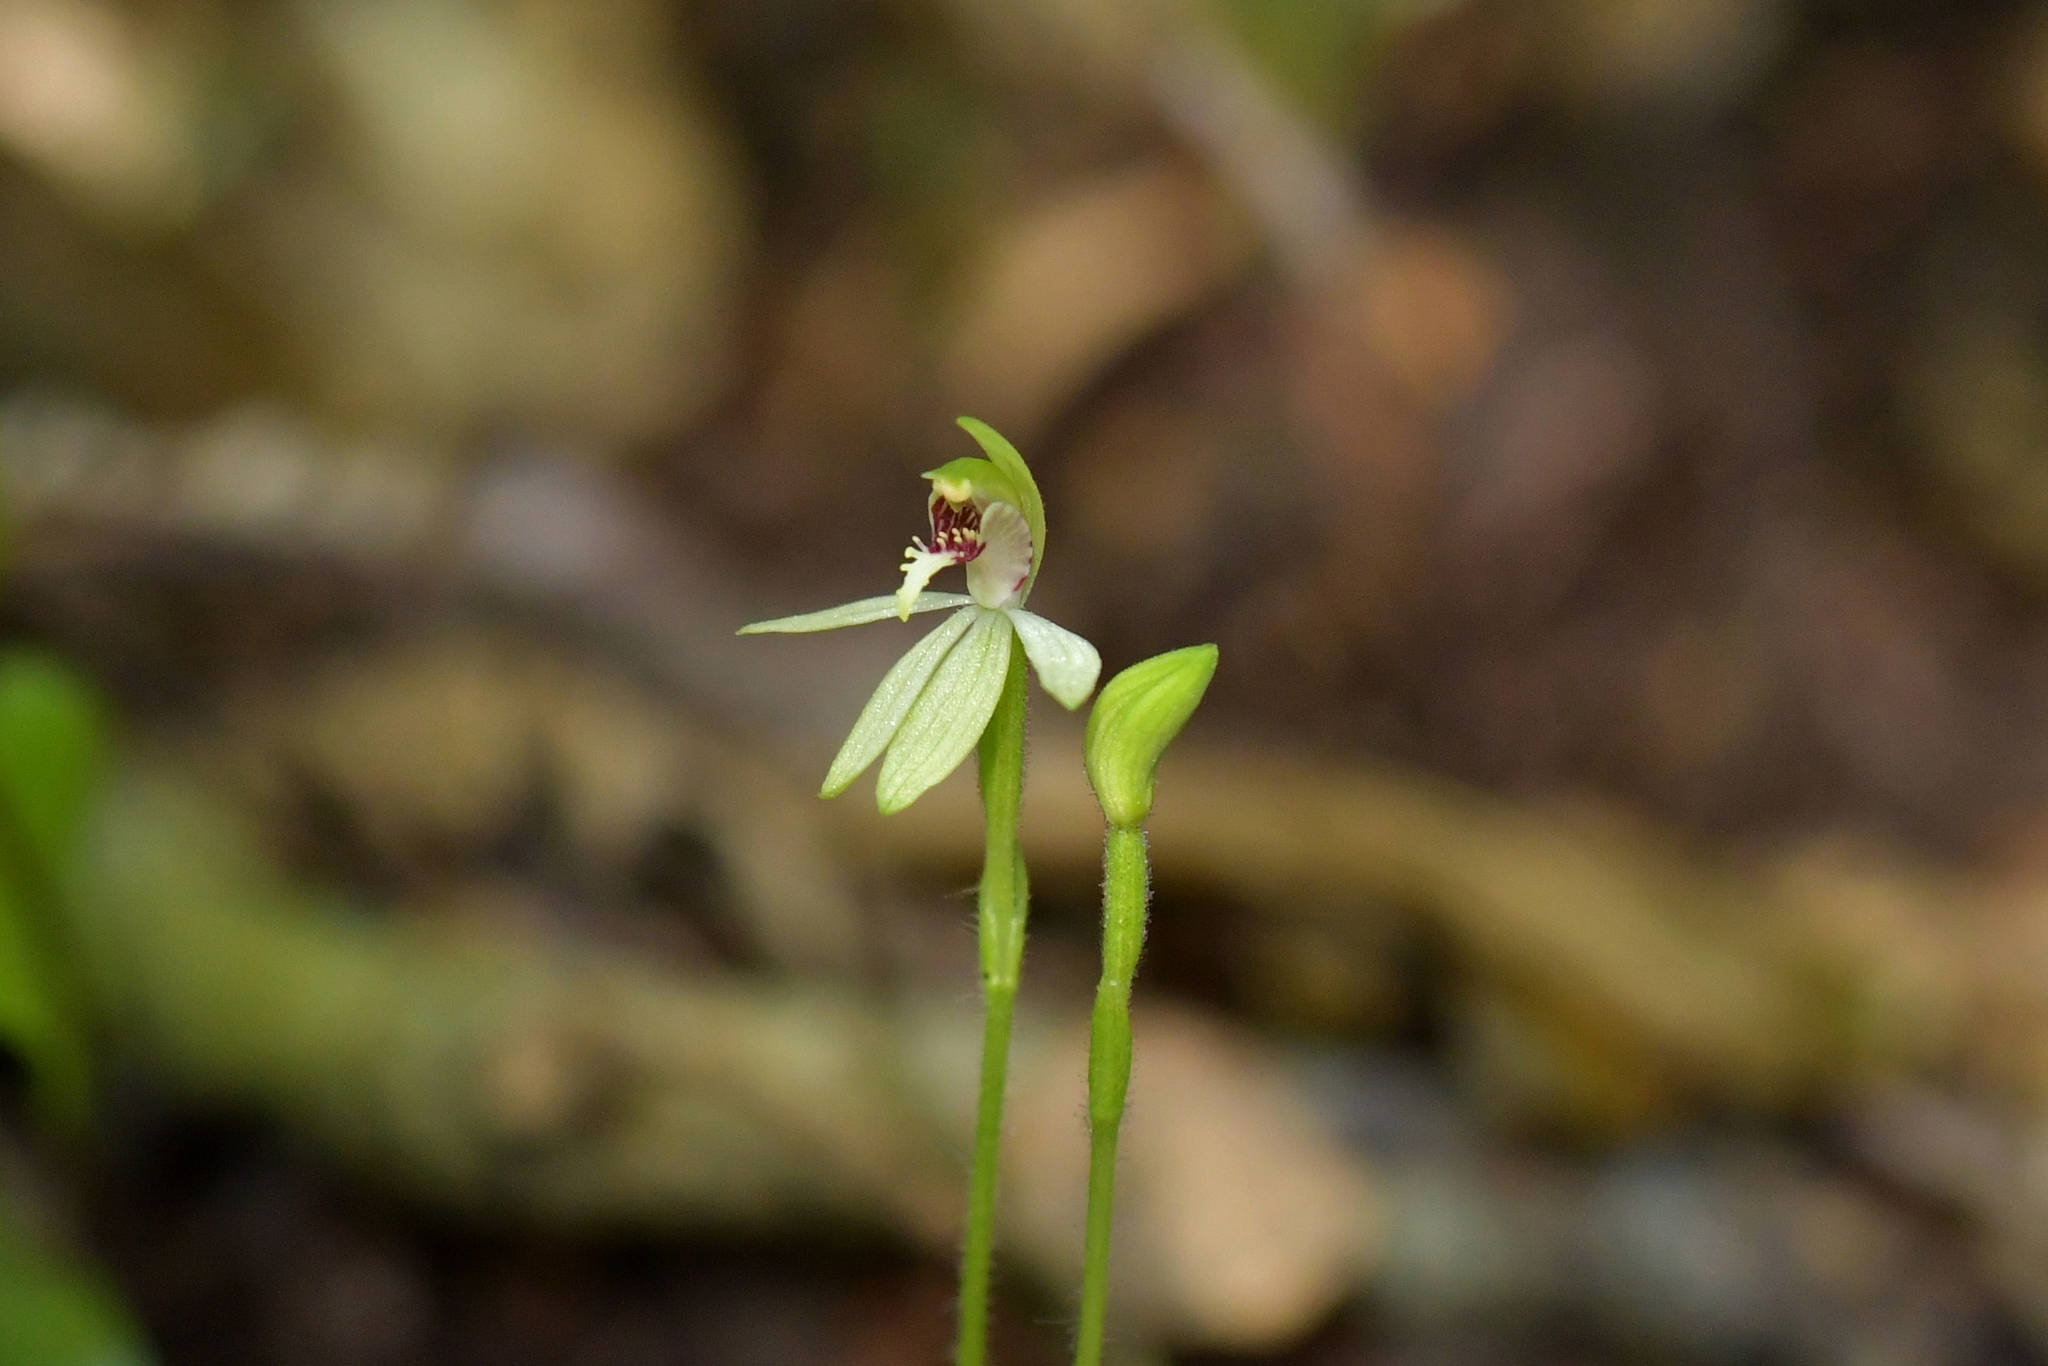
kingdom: Plantae
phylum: Tracheophyta
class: Liliopsida
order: Asparagales
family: Orchidaceae
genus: Caladenia
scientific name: Caladenia chlorostyla
